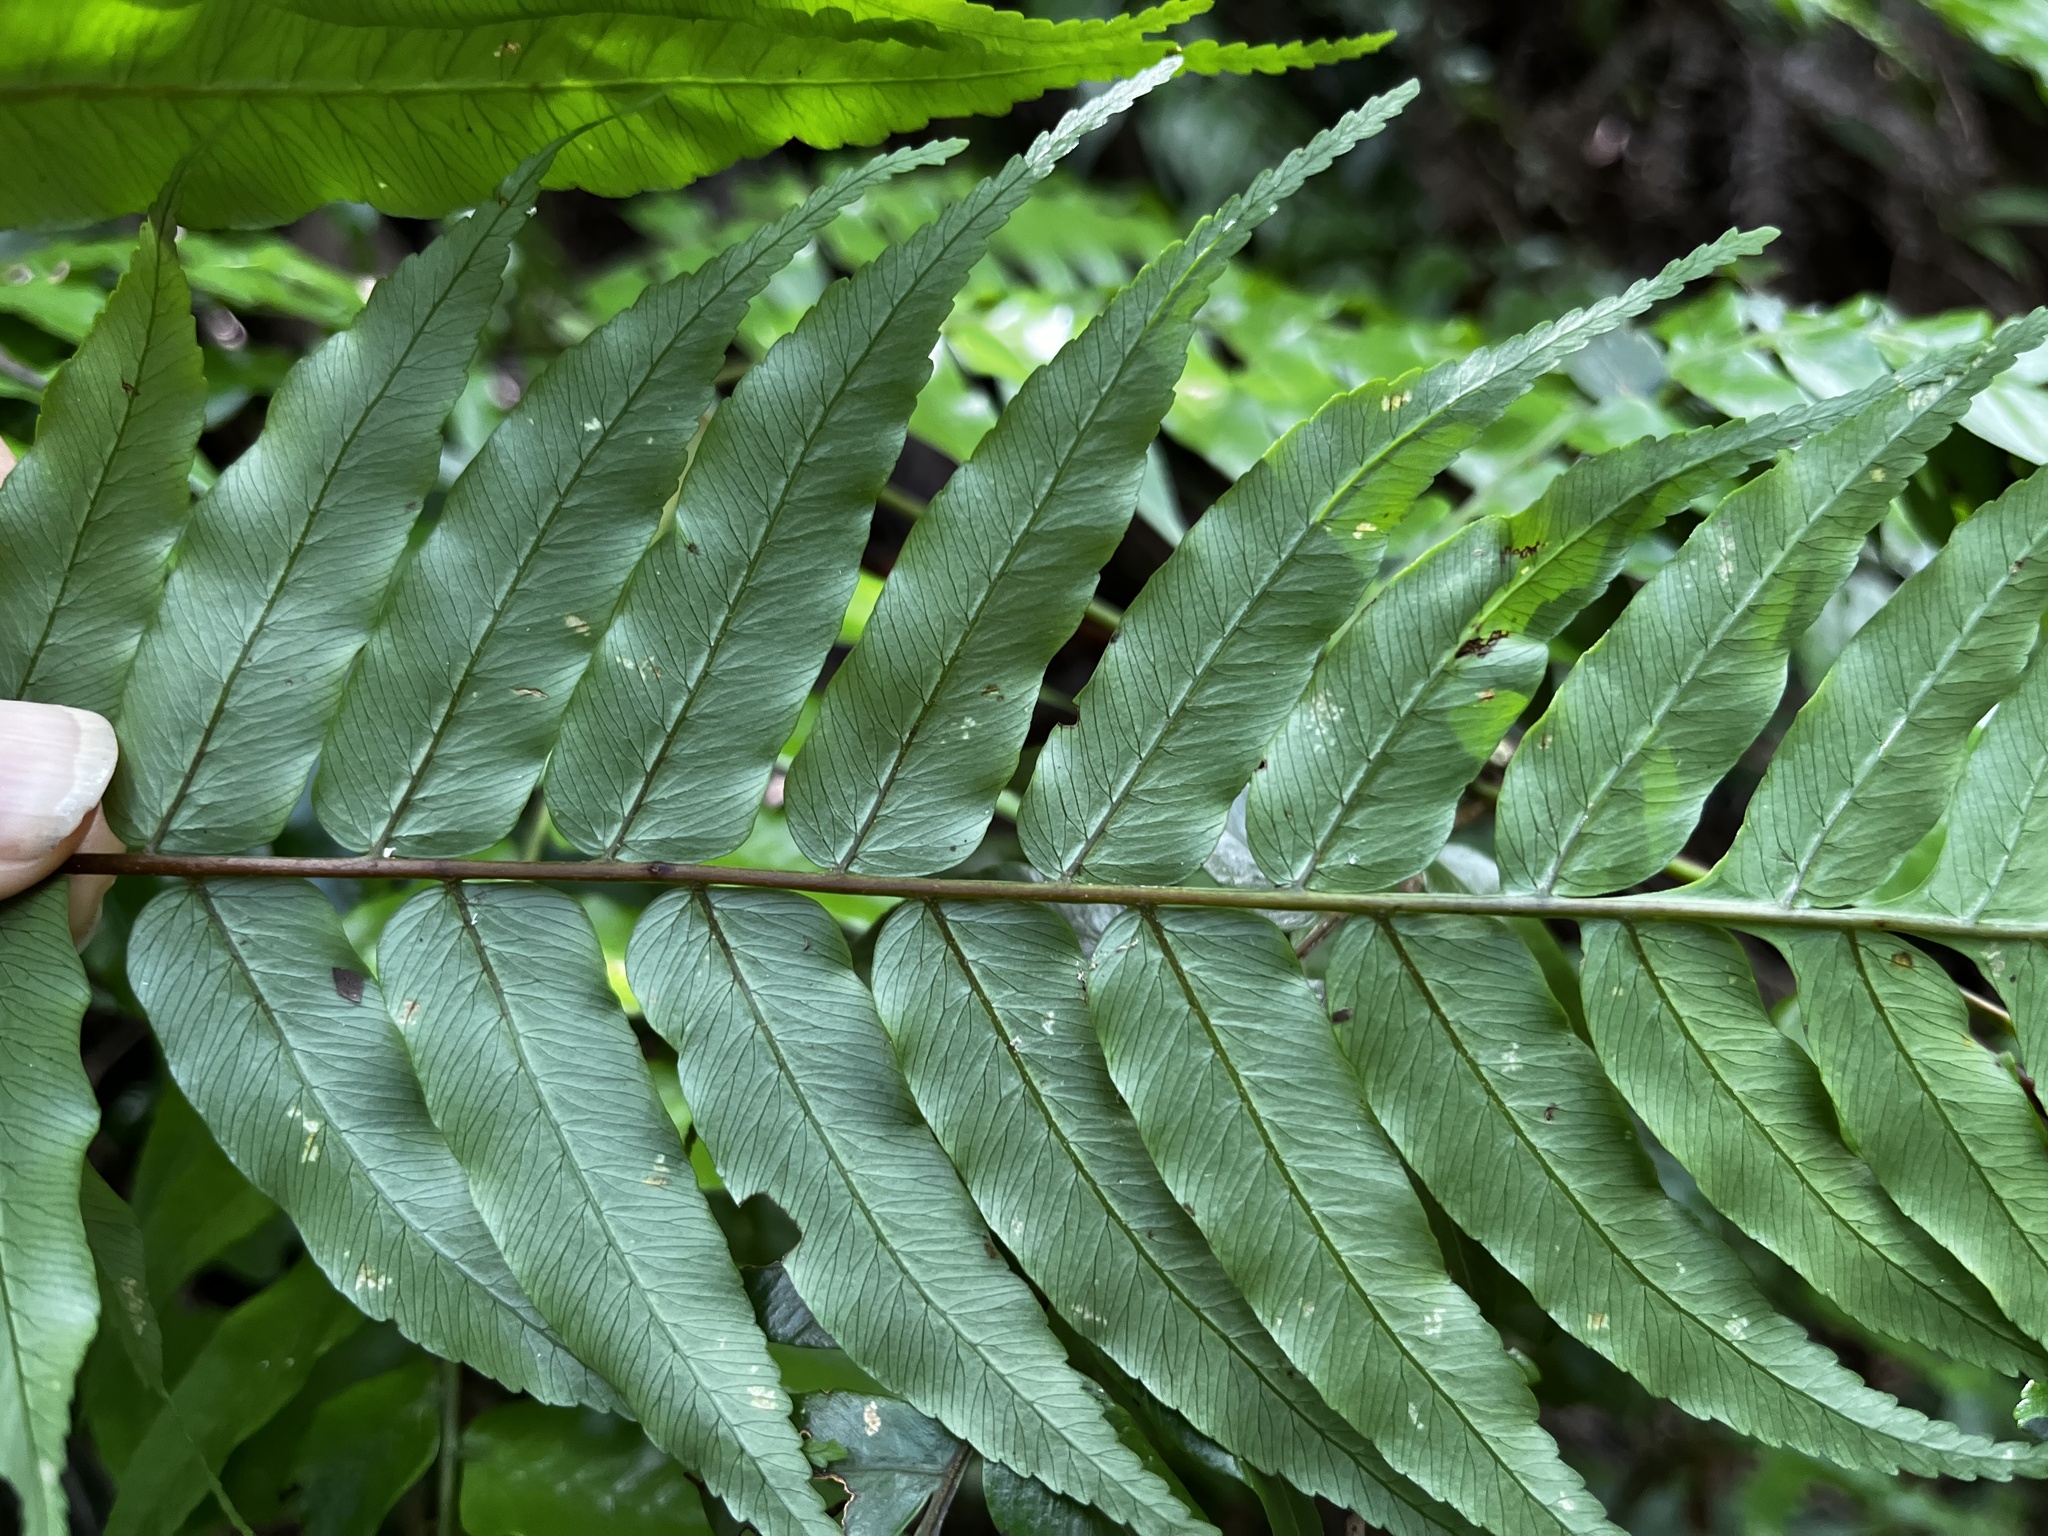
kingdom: Plantae
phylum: Tracheophyta
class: Polypodiopsida
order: Cyatheales
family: Cyatheaceae
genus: Gymnosphaera
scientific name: Gymnosphaera podophylla
